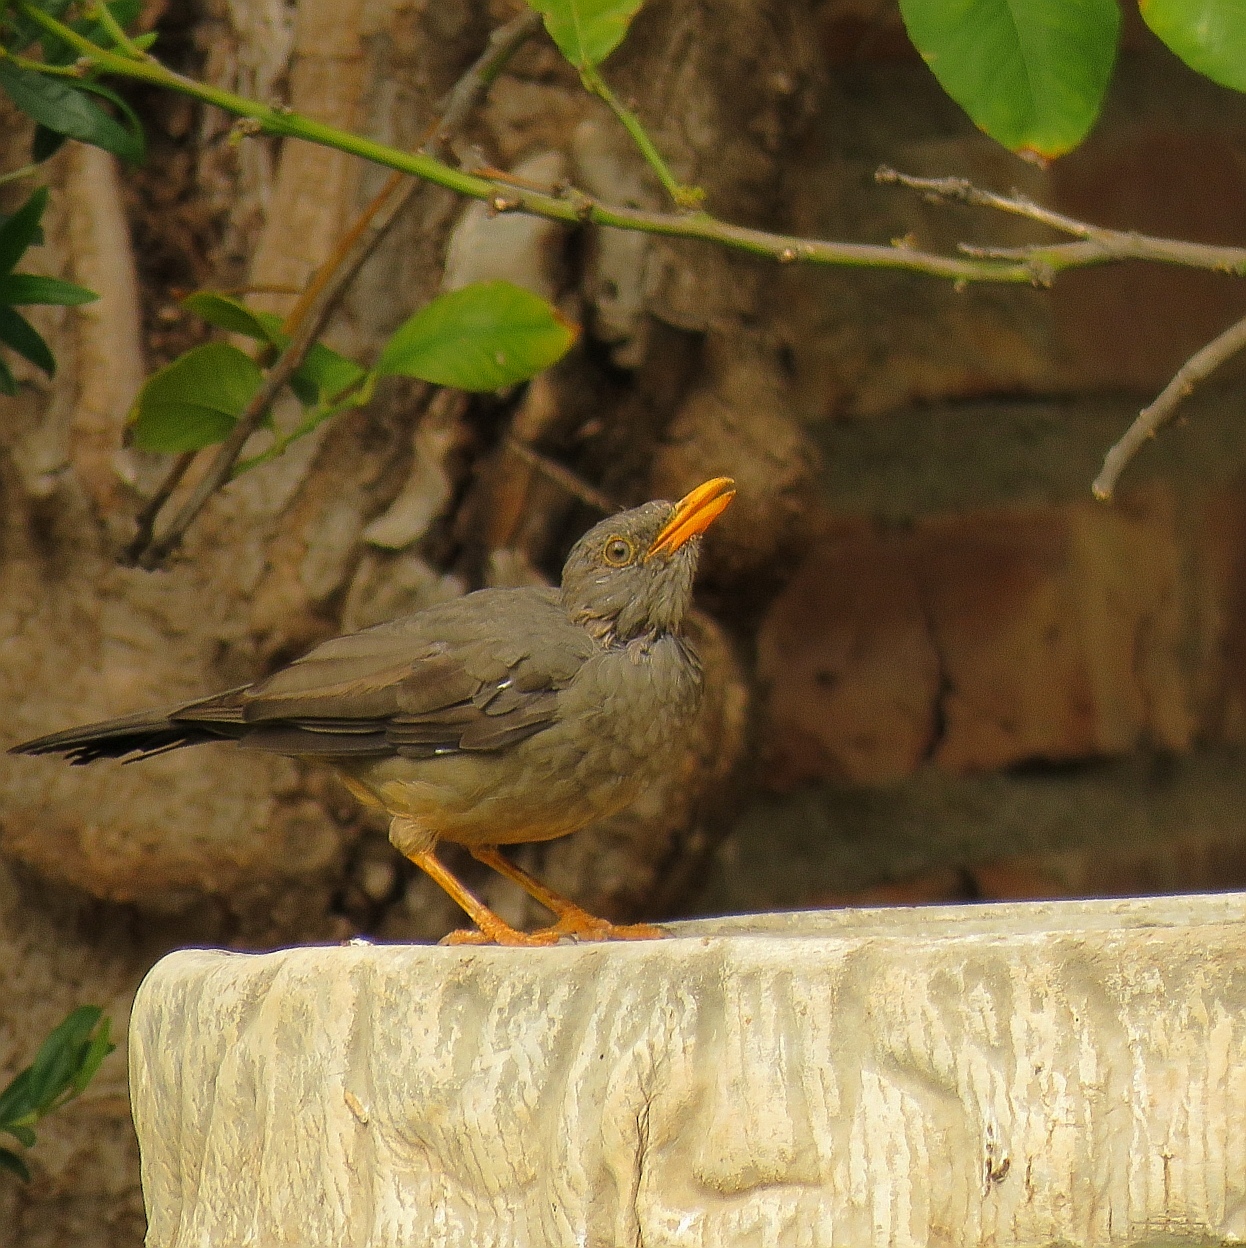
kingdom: Animalia
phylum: Chordata
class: Aves
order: Passeriformes
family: Turdidae
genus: Turdus
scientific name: Turdus smithi
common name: Karoo thrush
